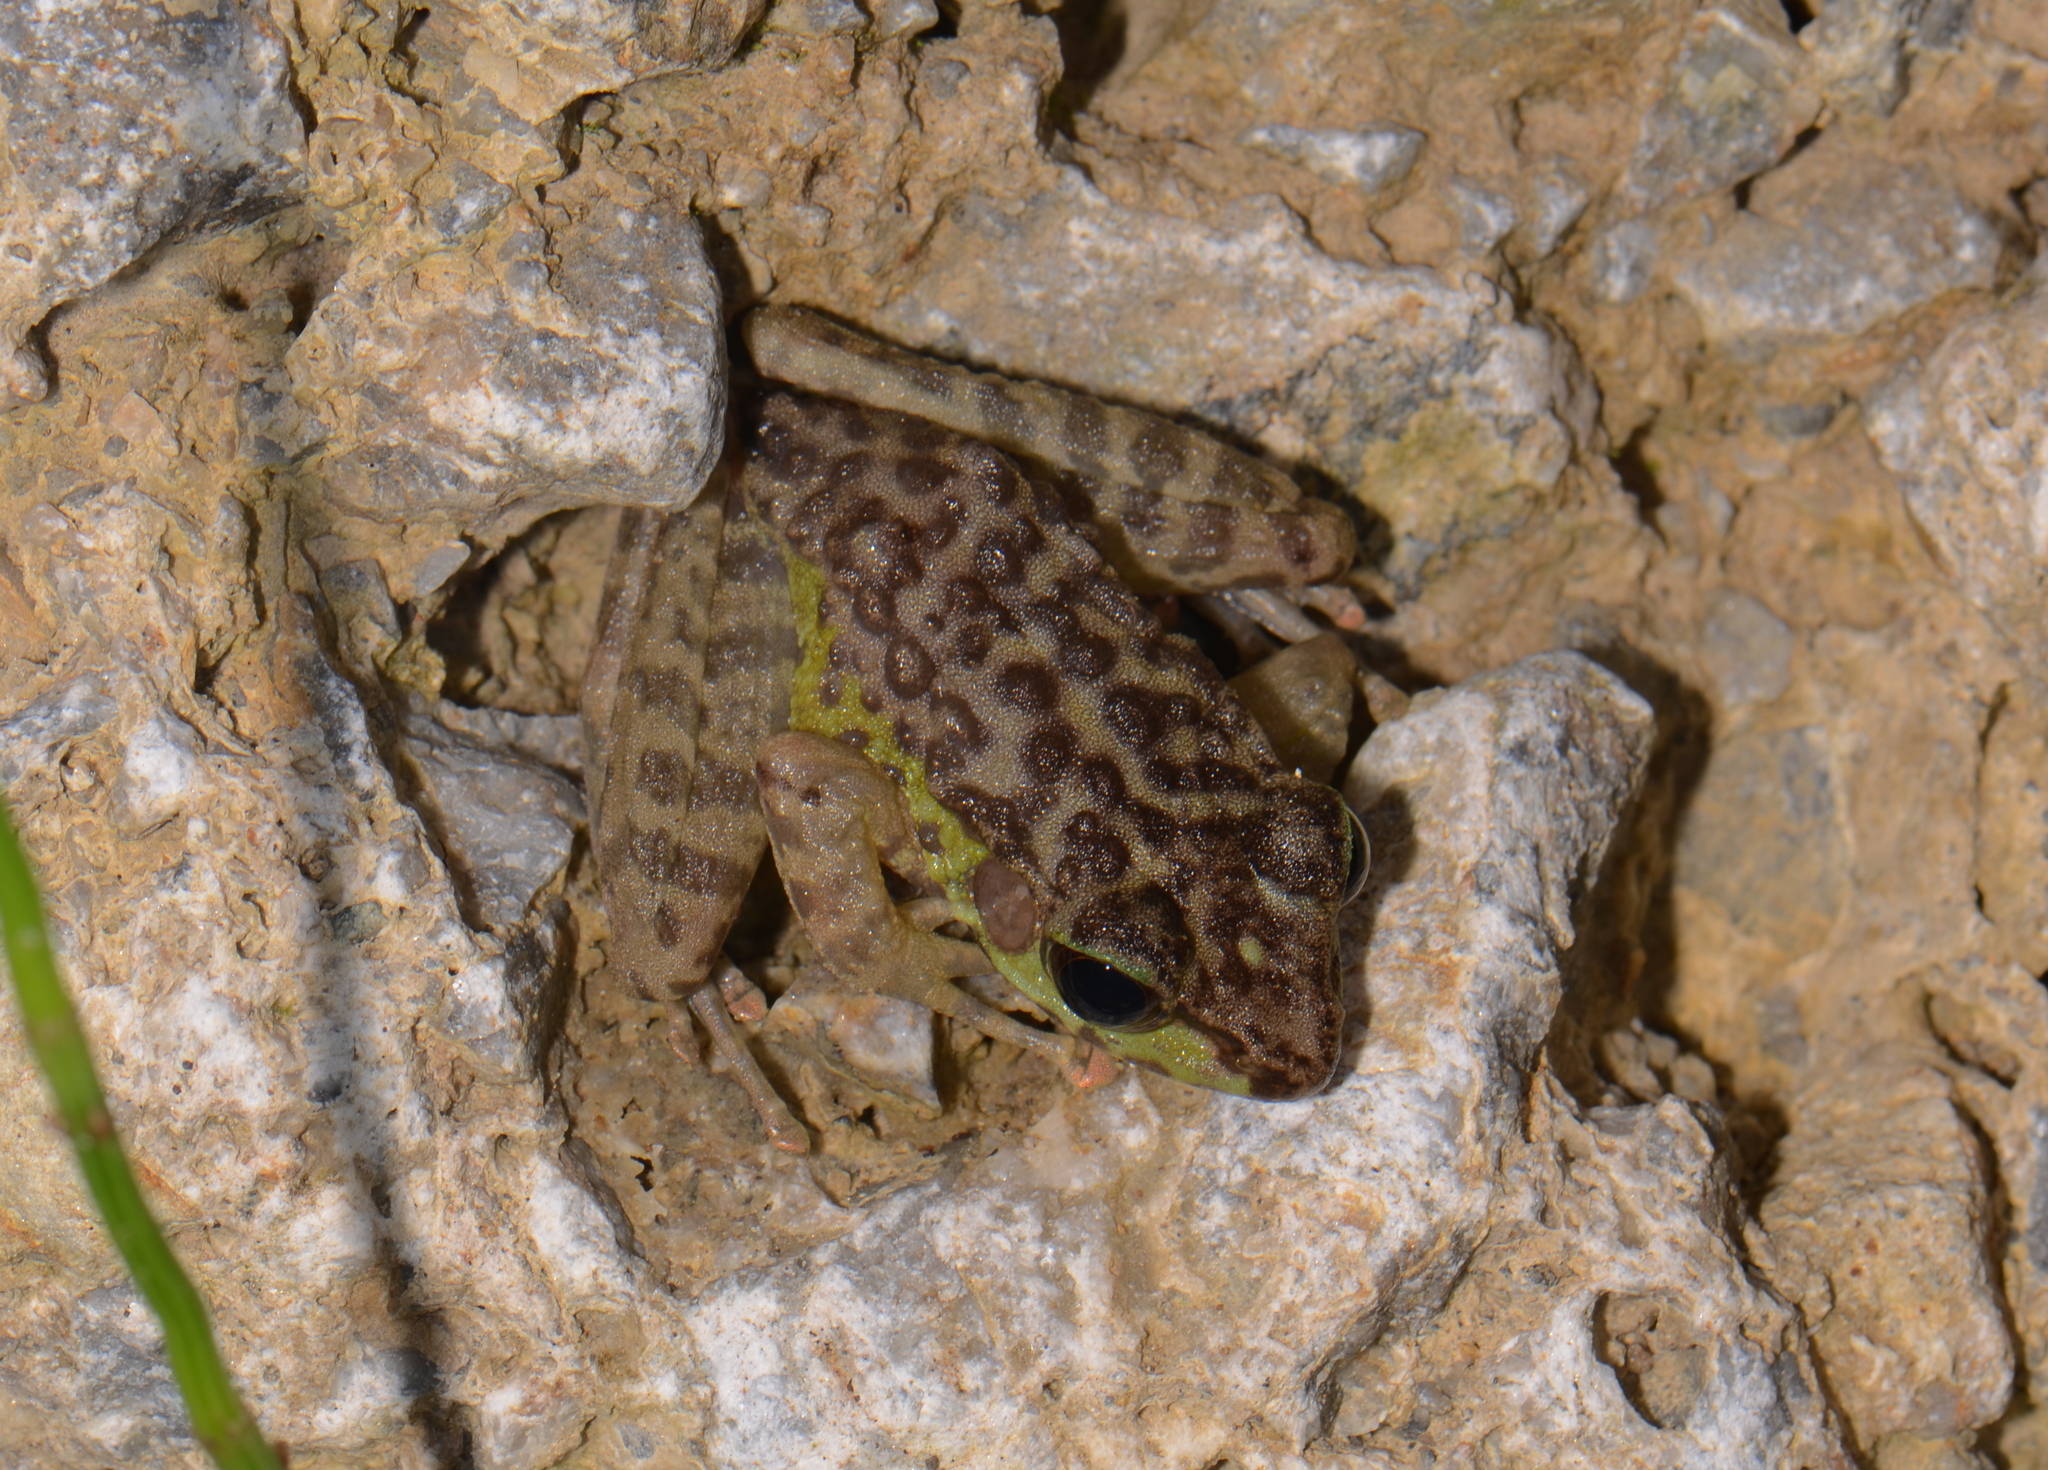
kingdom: Animalia
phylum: Chordata
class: Amphibia
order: Anura
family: Ranidae
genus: Sumaterana
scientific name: Sumaterana crassiovis
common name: Korinchi frog
